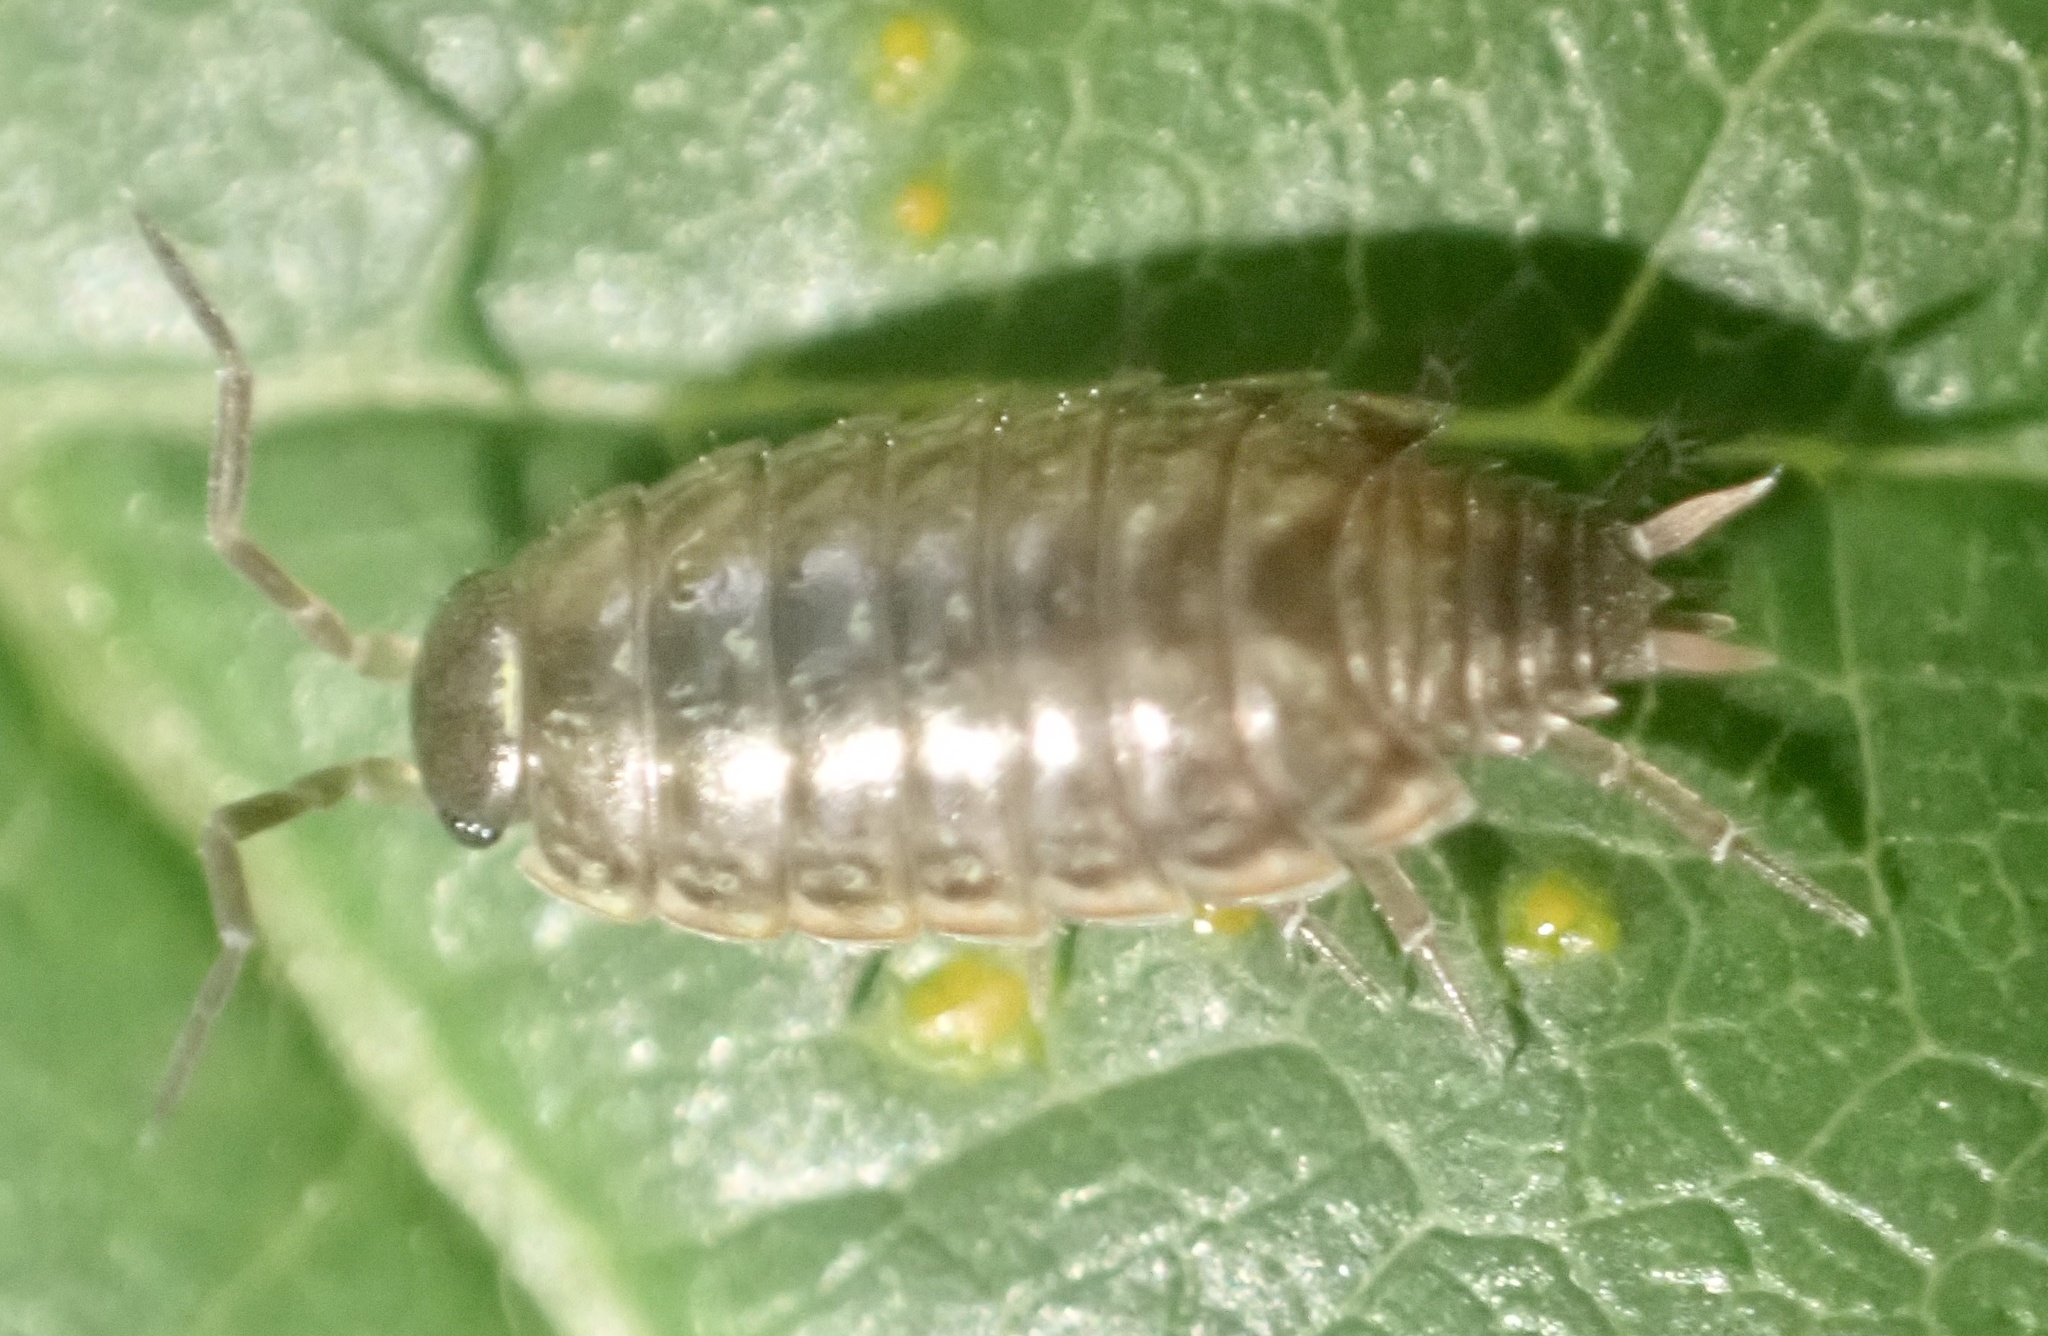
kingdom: Animalia
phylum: Arthropoda
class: Malacostraca
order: Isopoda
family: Philosciidae
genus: Philoscia
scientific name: Philoscia muscorum
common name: Common striped woodlouse
